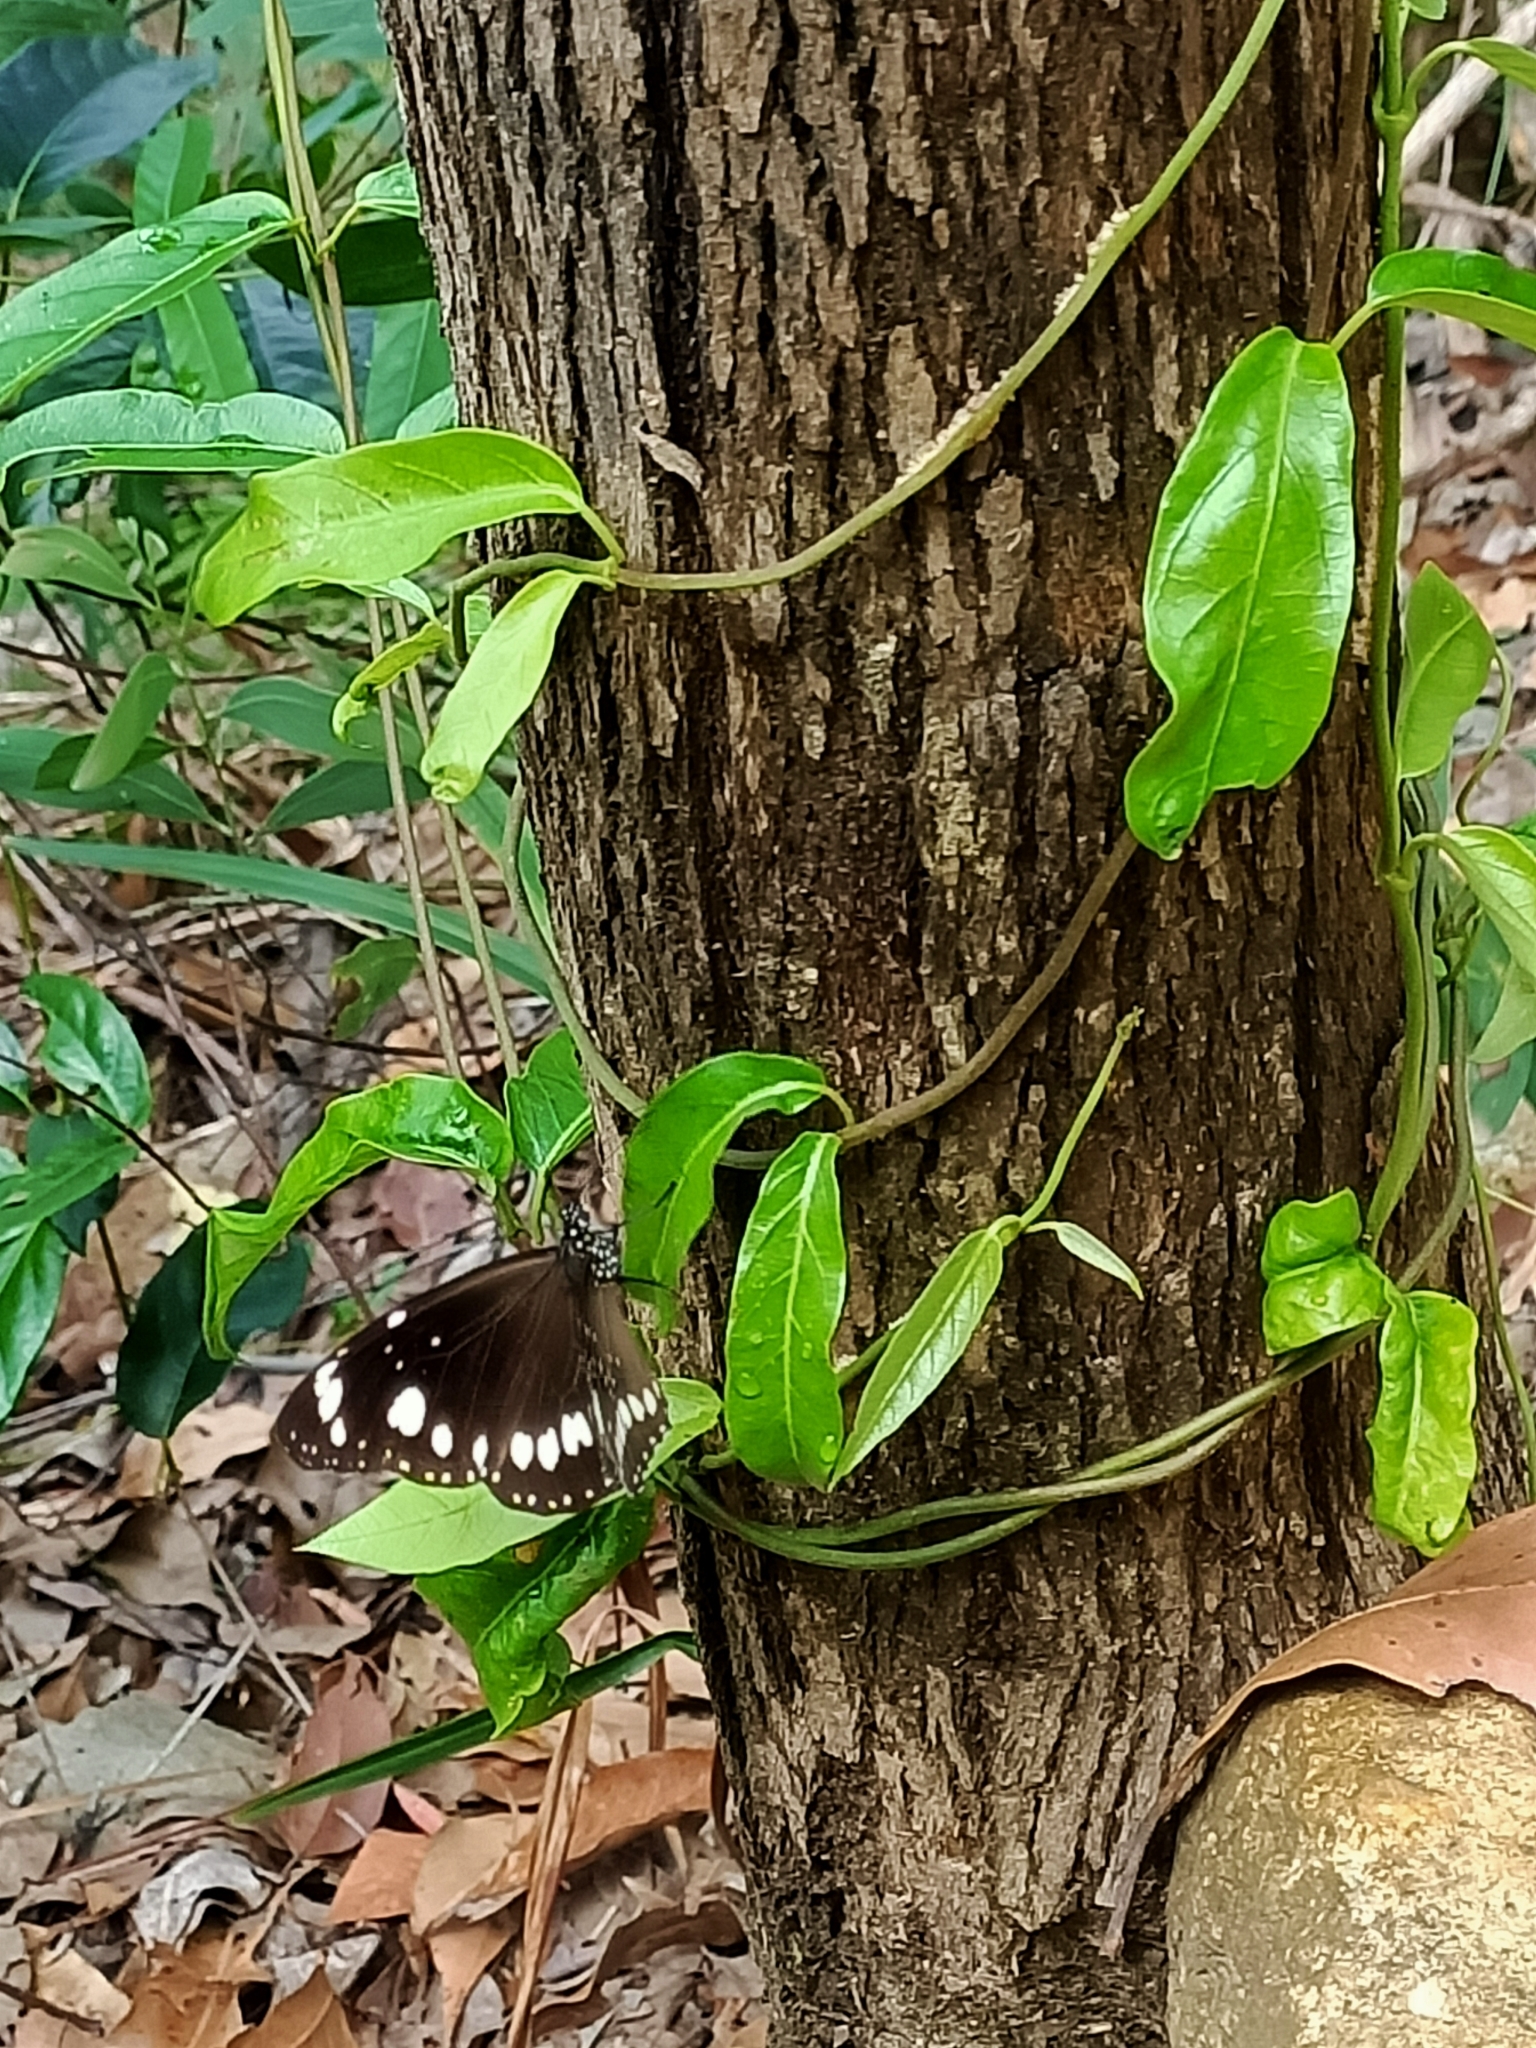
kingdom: Animalia
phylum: Arthropoda
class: Insecta
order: Lepidoptera
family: Nymphalidae
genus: Euploea
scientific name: Euploea core
